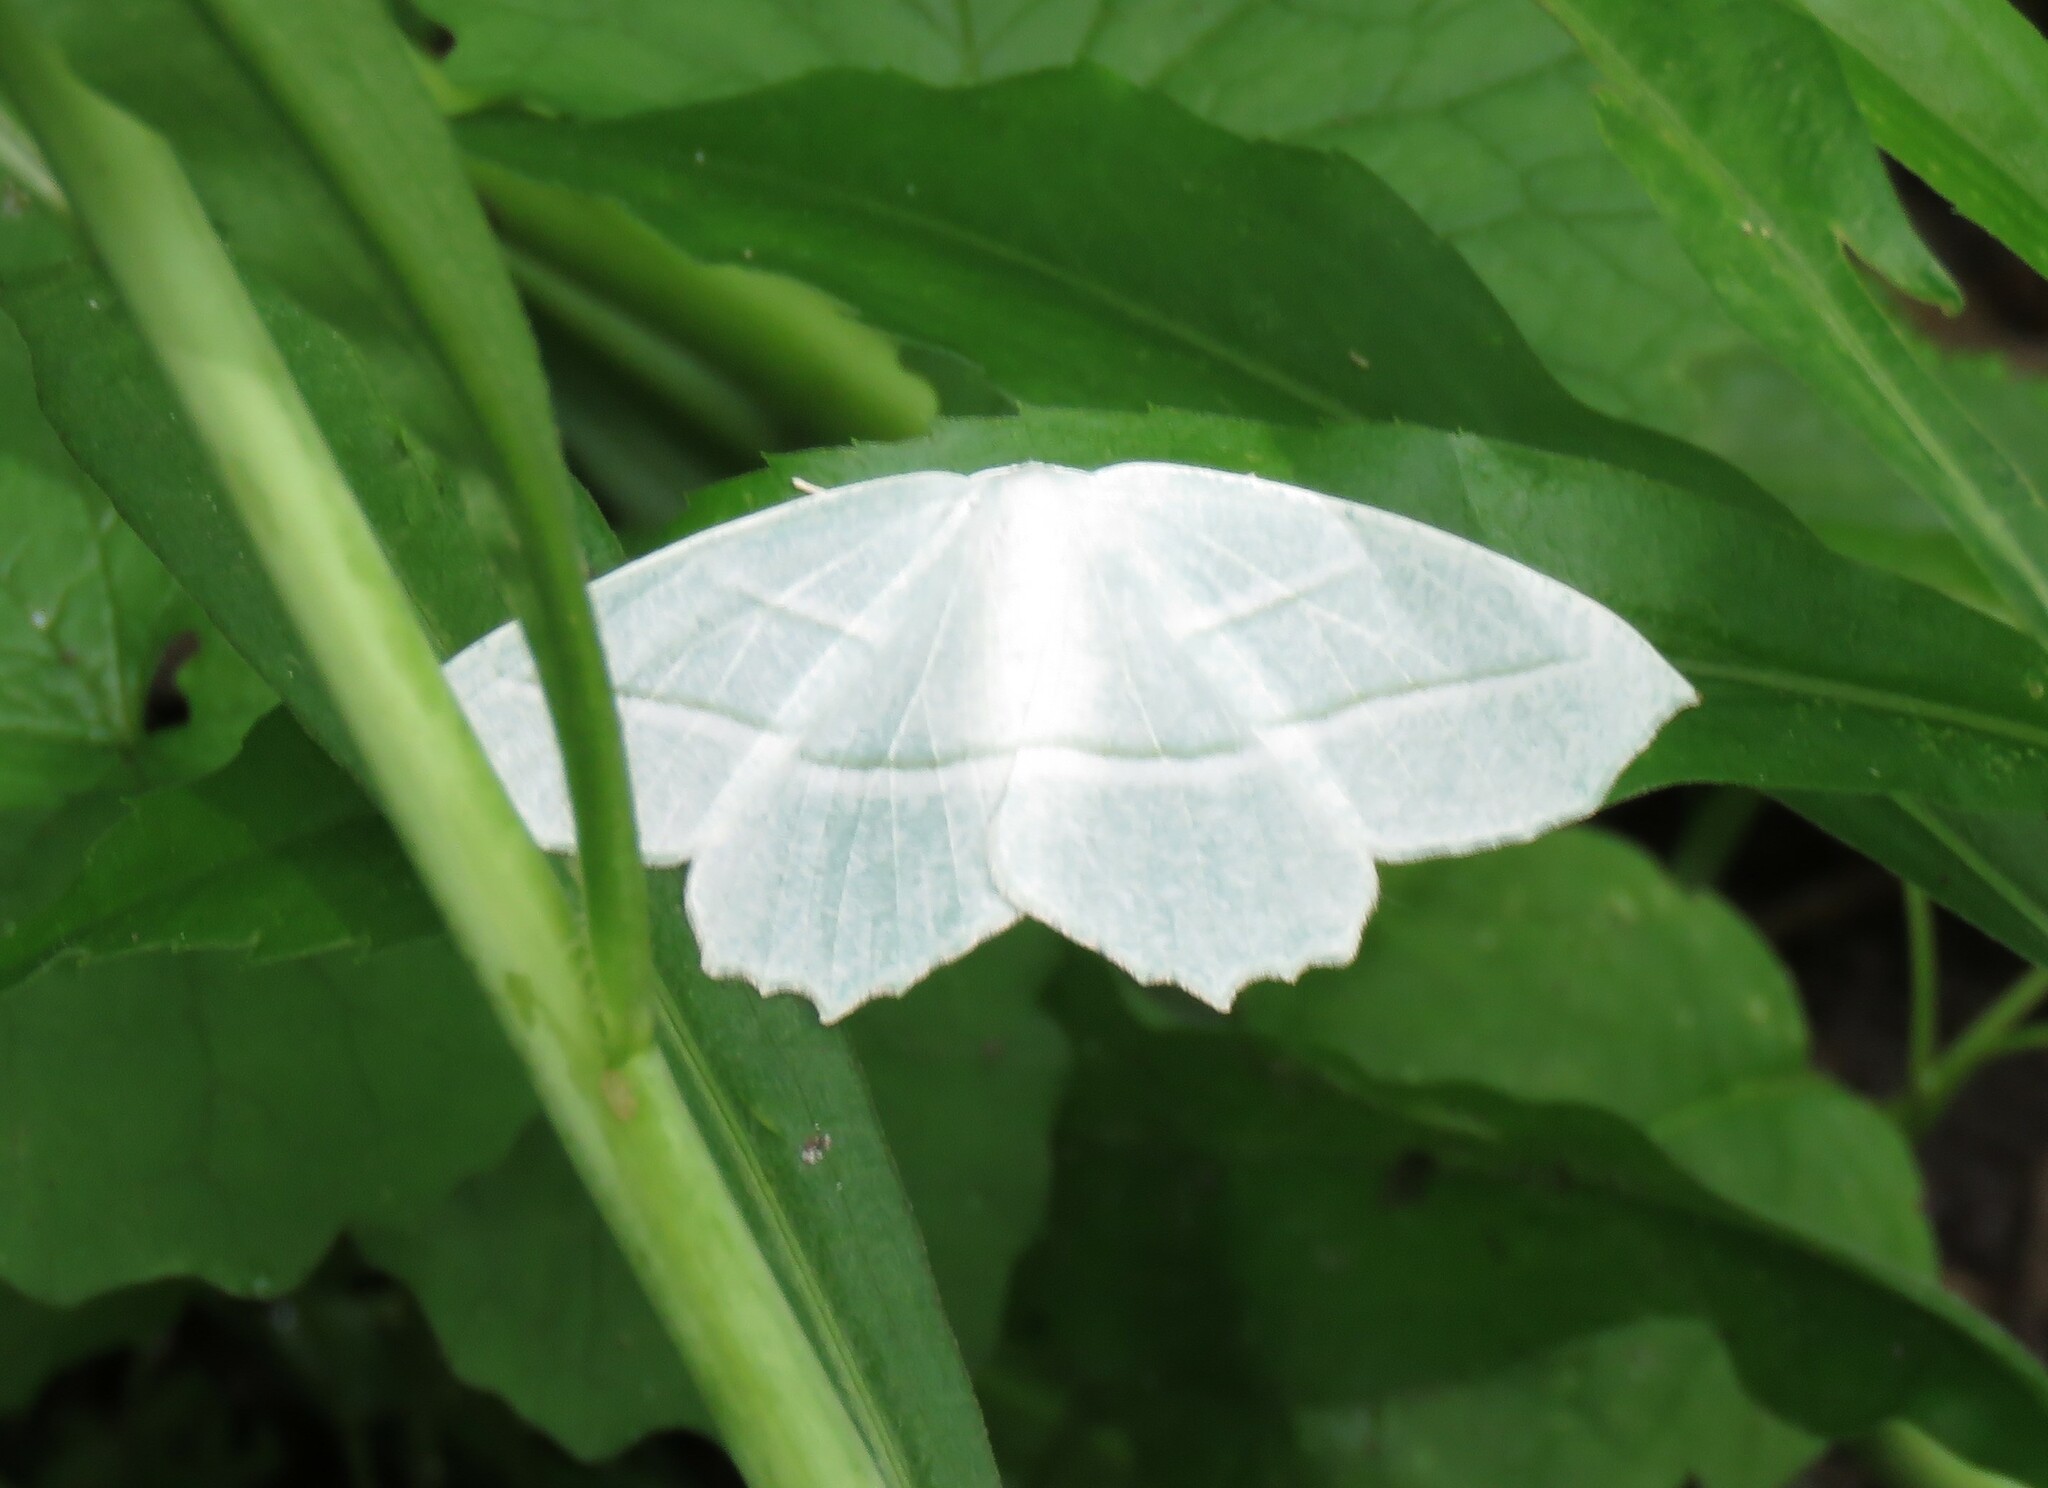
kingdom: Animalia
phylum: Arthropoda
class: Insecta
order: Lepidoptera
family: Geometridae
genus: Campaea
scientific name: Campaea perlata
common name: Fringed looper
